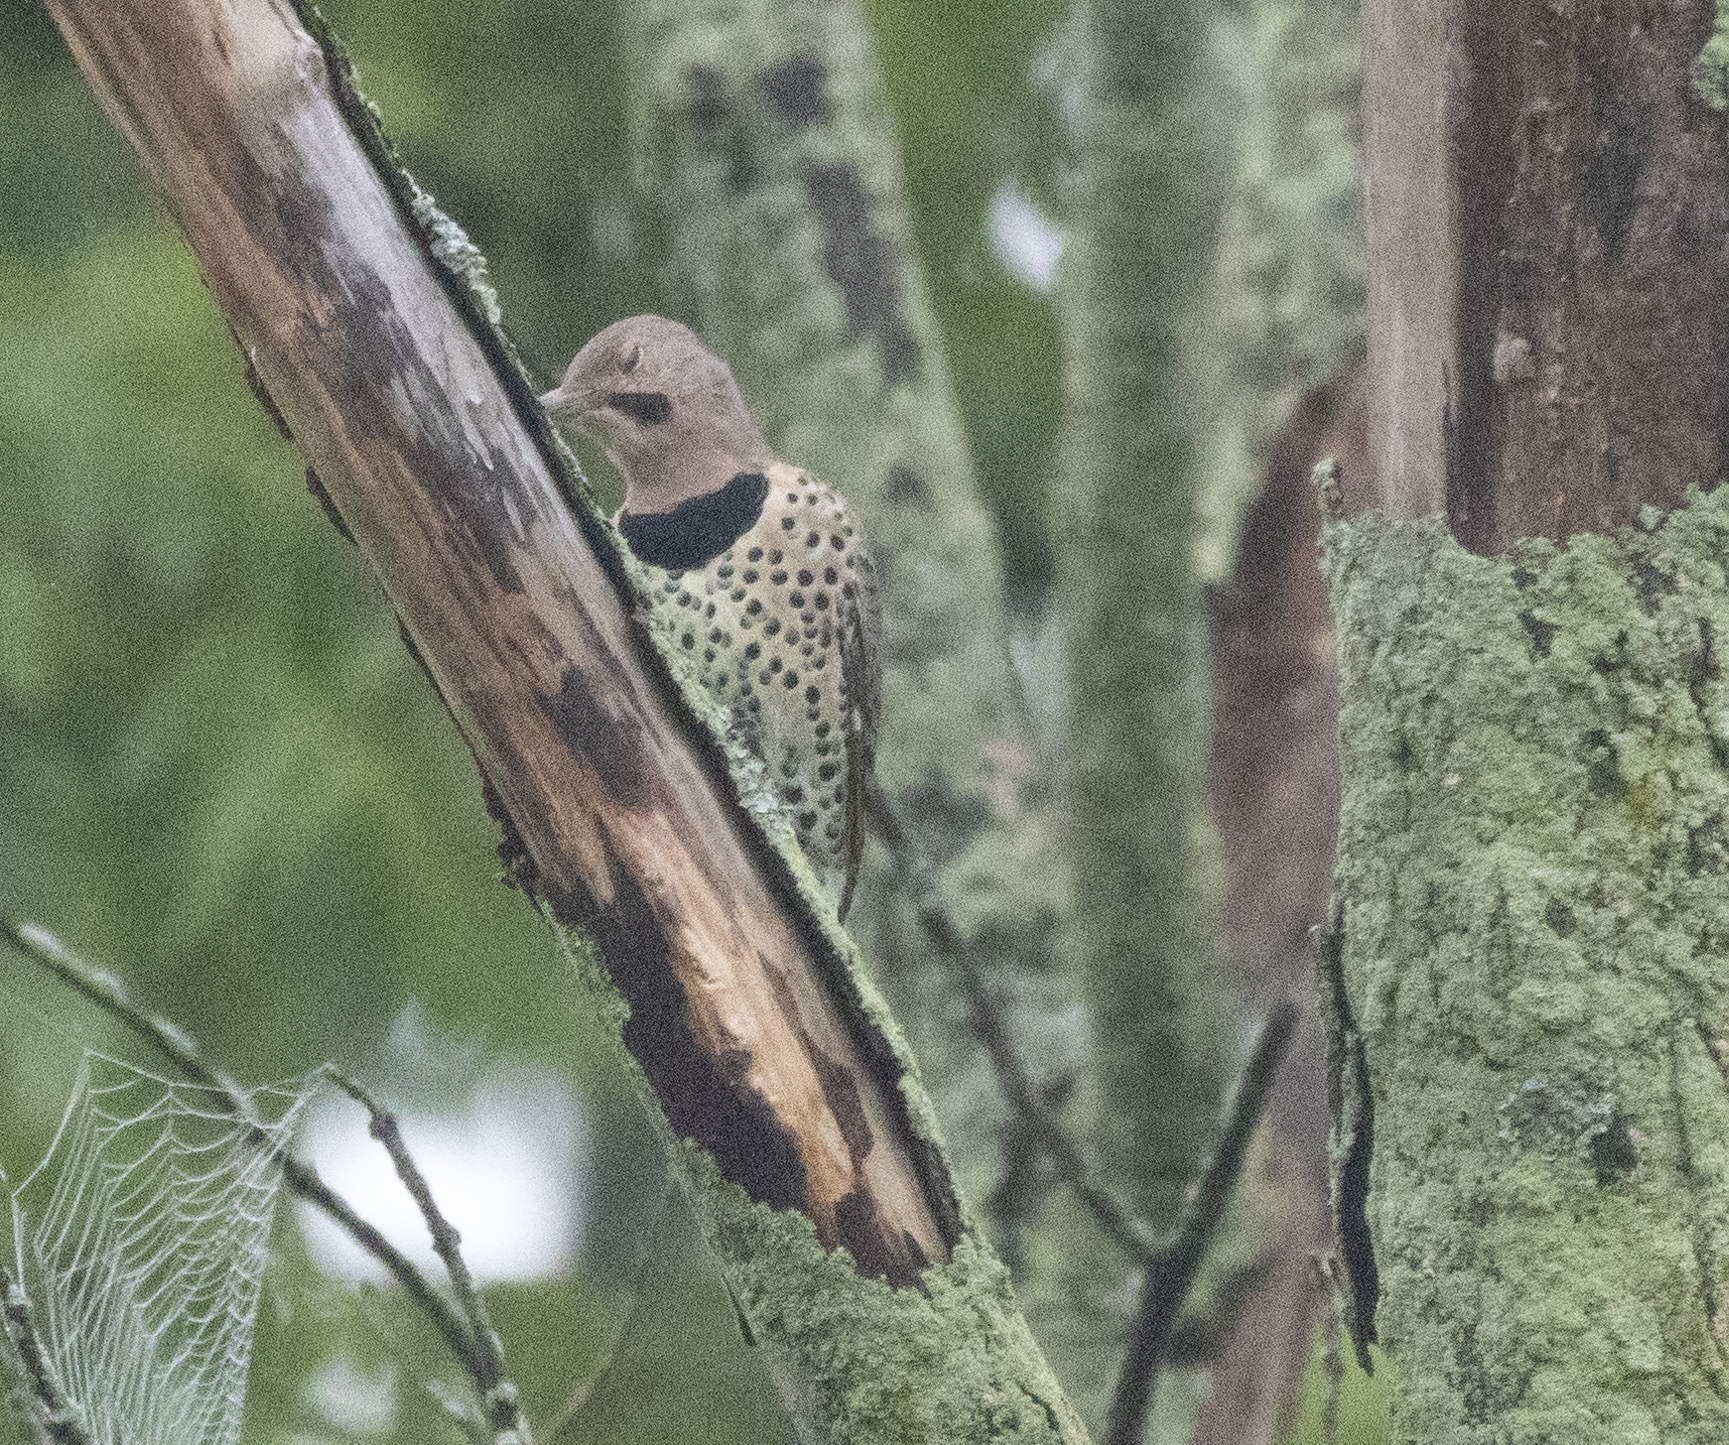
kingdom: Animalia
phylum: Chordata
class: Aves
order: Piciformes
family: Picidae
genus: Colaptes
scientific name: Colaptes auratus
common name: Northern flicker
